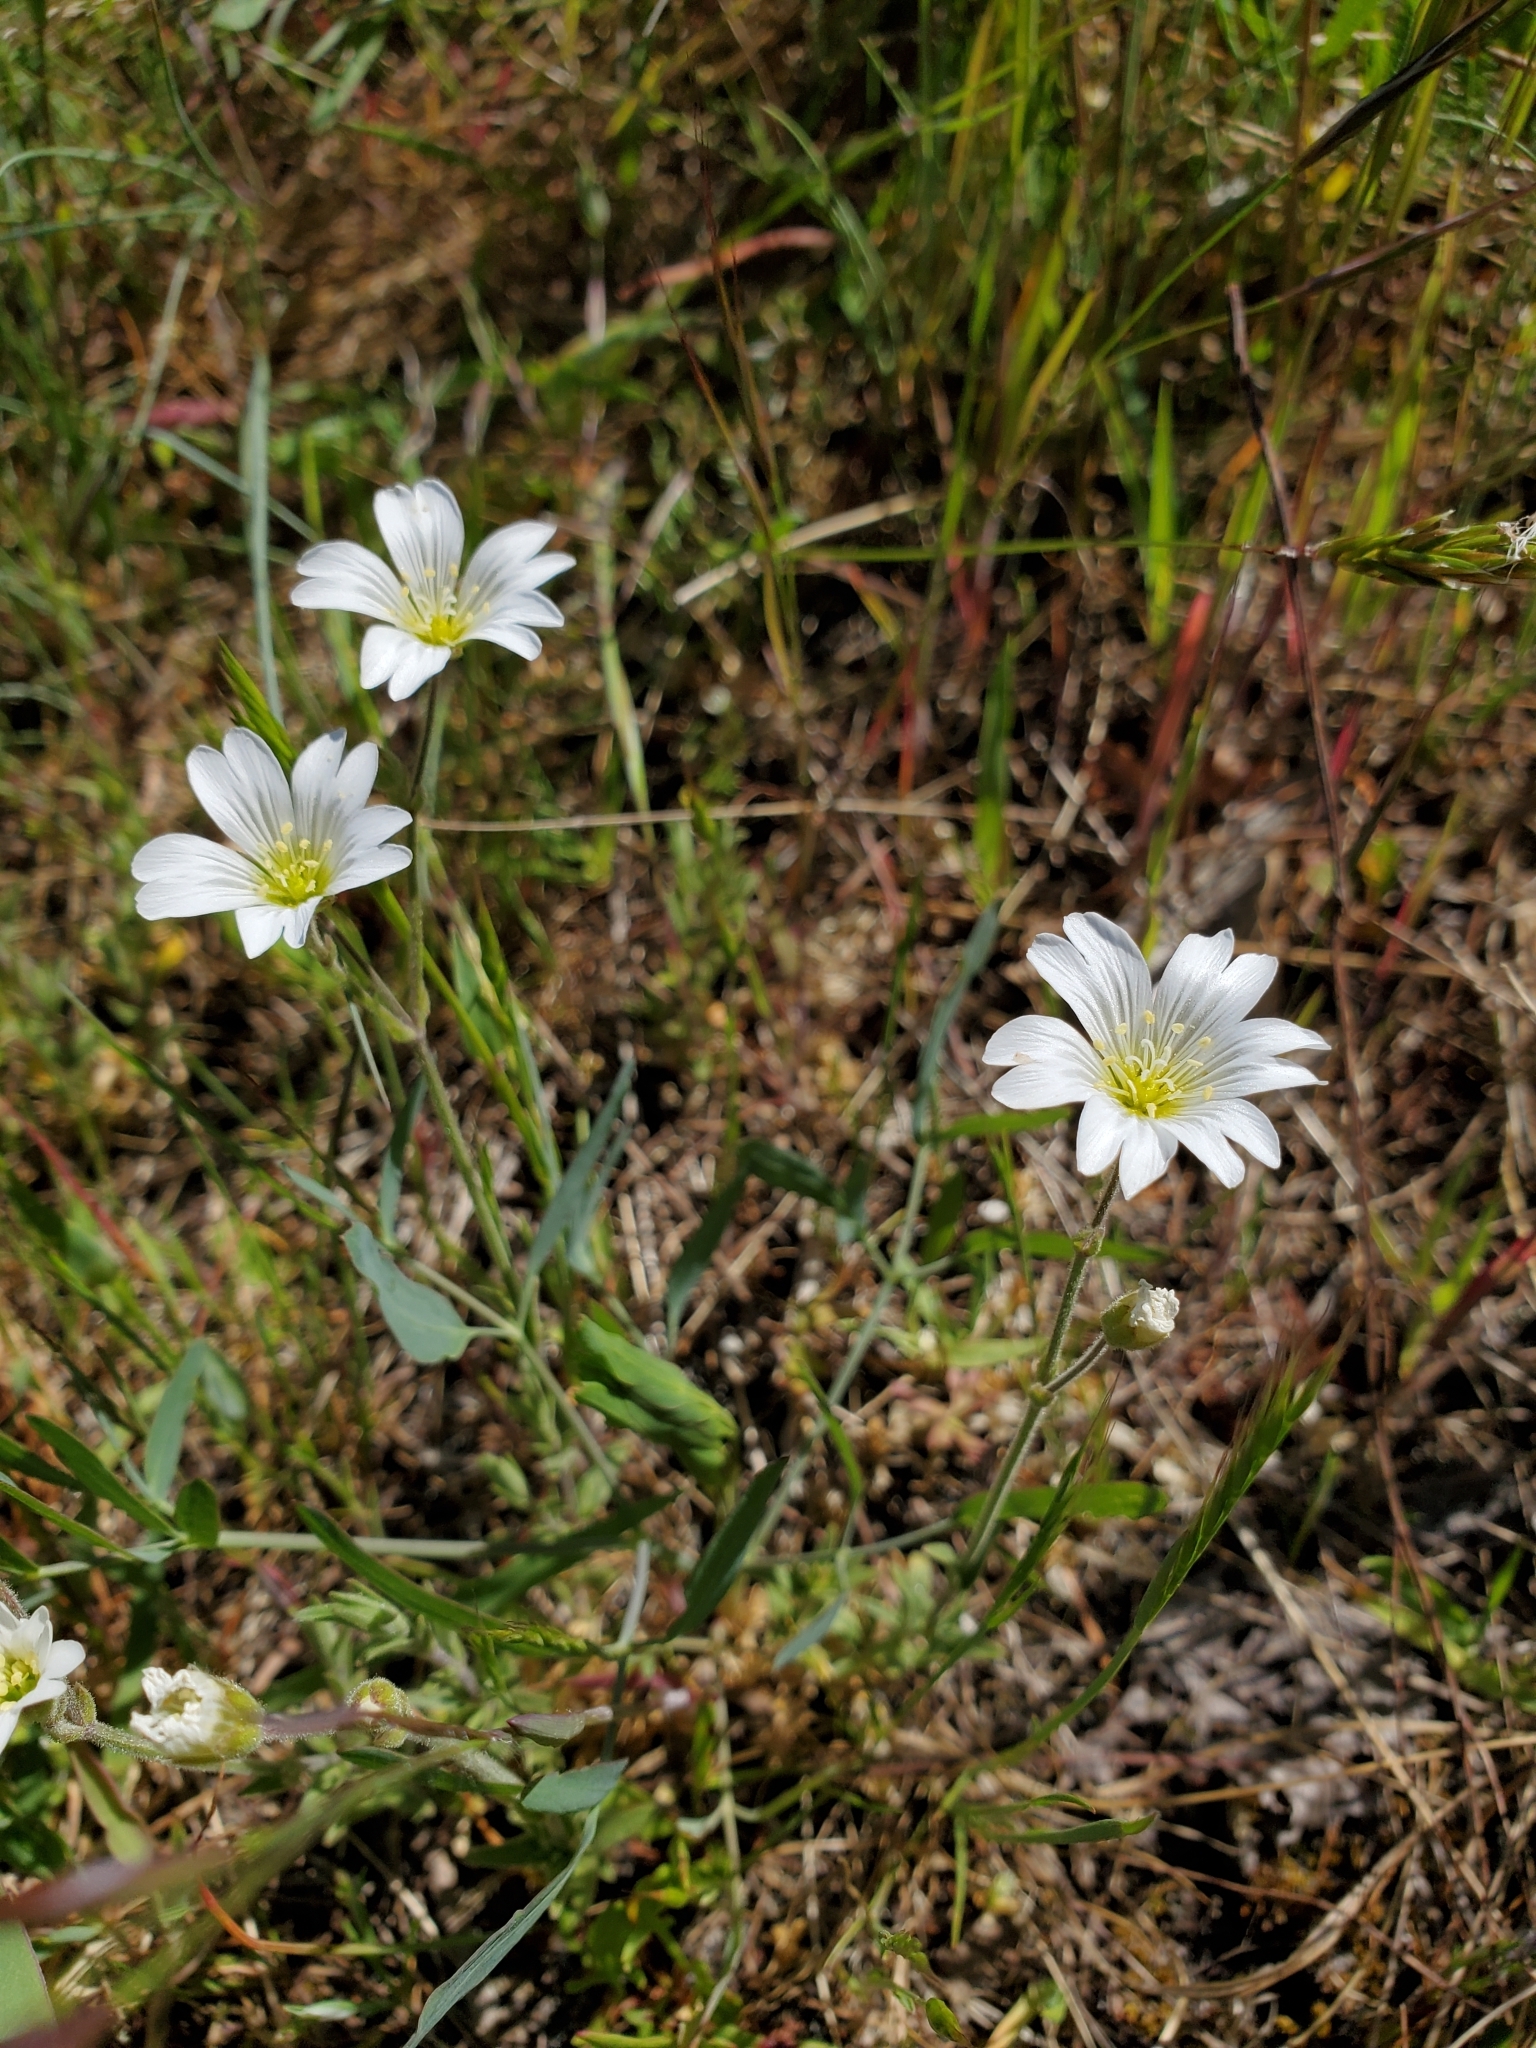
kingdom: Plantae
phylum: Tracheophyta
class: Magnoliopsida
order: Caryophyllales
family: Caryophyllaceae
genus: Cerastium
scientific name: Cerastium arvense
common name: Field mouse-ear
